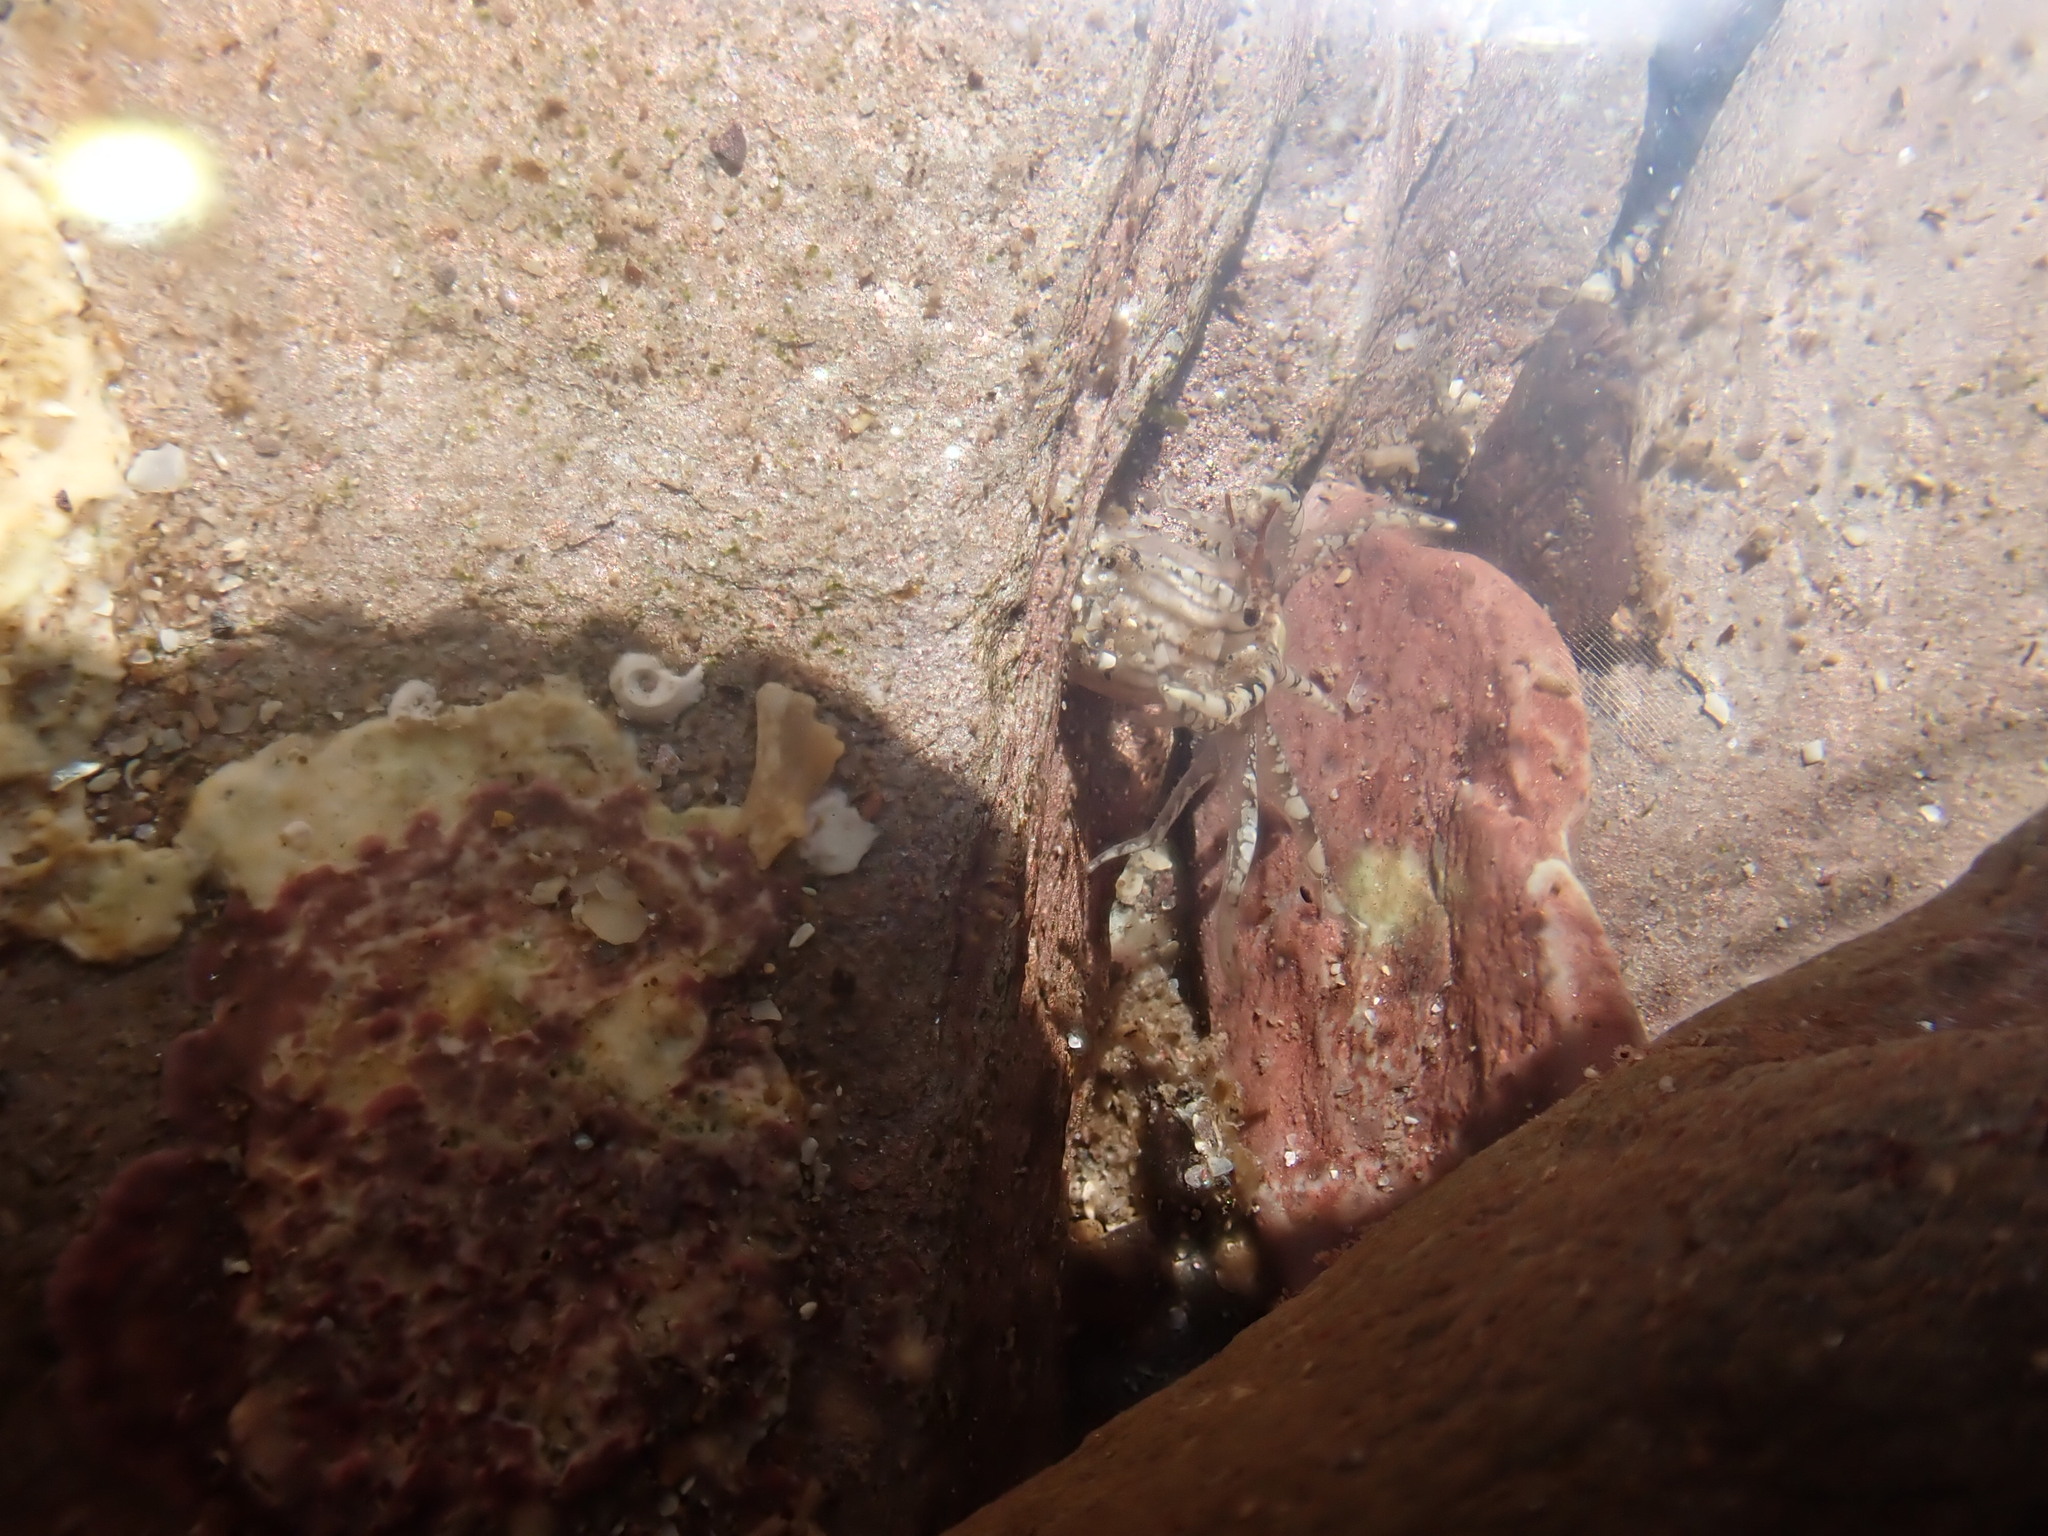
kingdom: Animalia
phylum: Cnidaria
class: Anthozoa
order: Actiniaria
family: Actiniidae
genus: Bunodactis
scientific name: Bunodactis verrucosa
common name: Gem anemone
